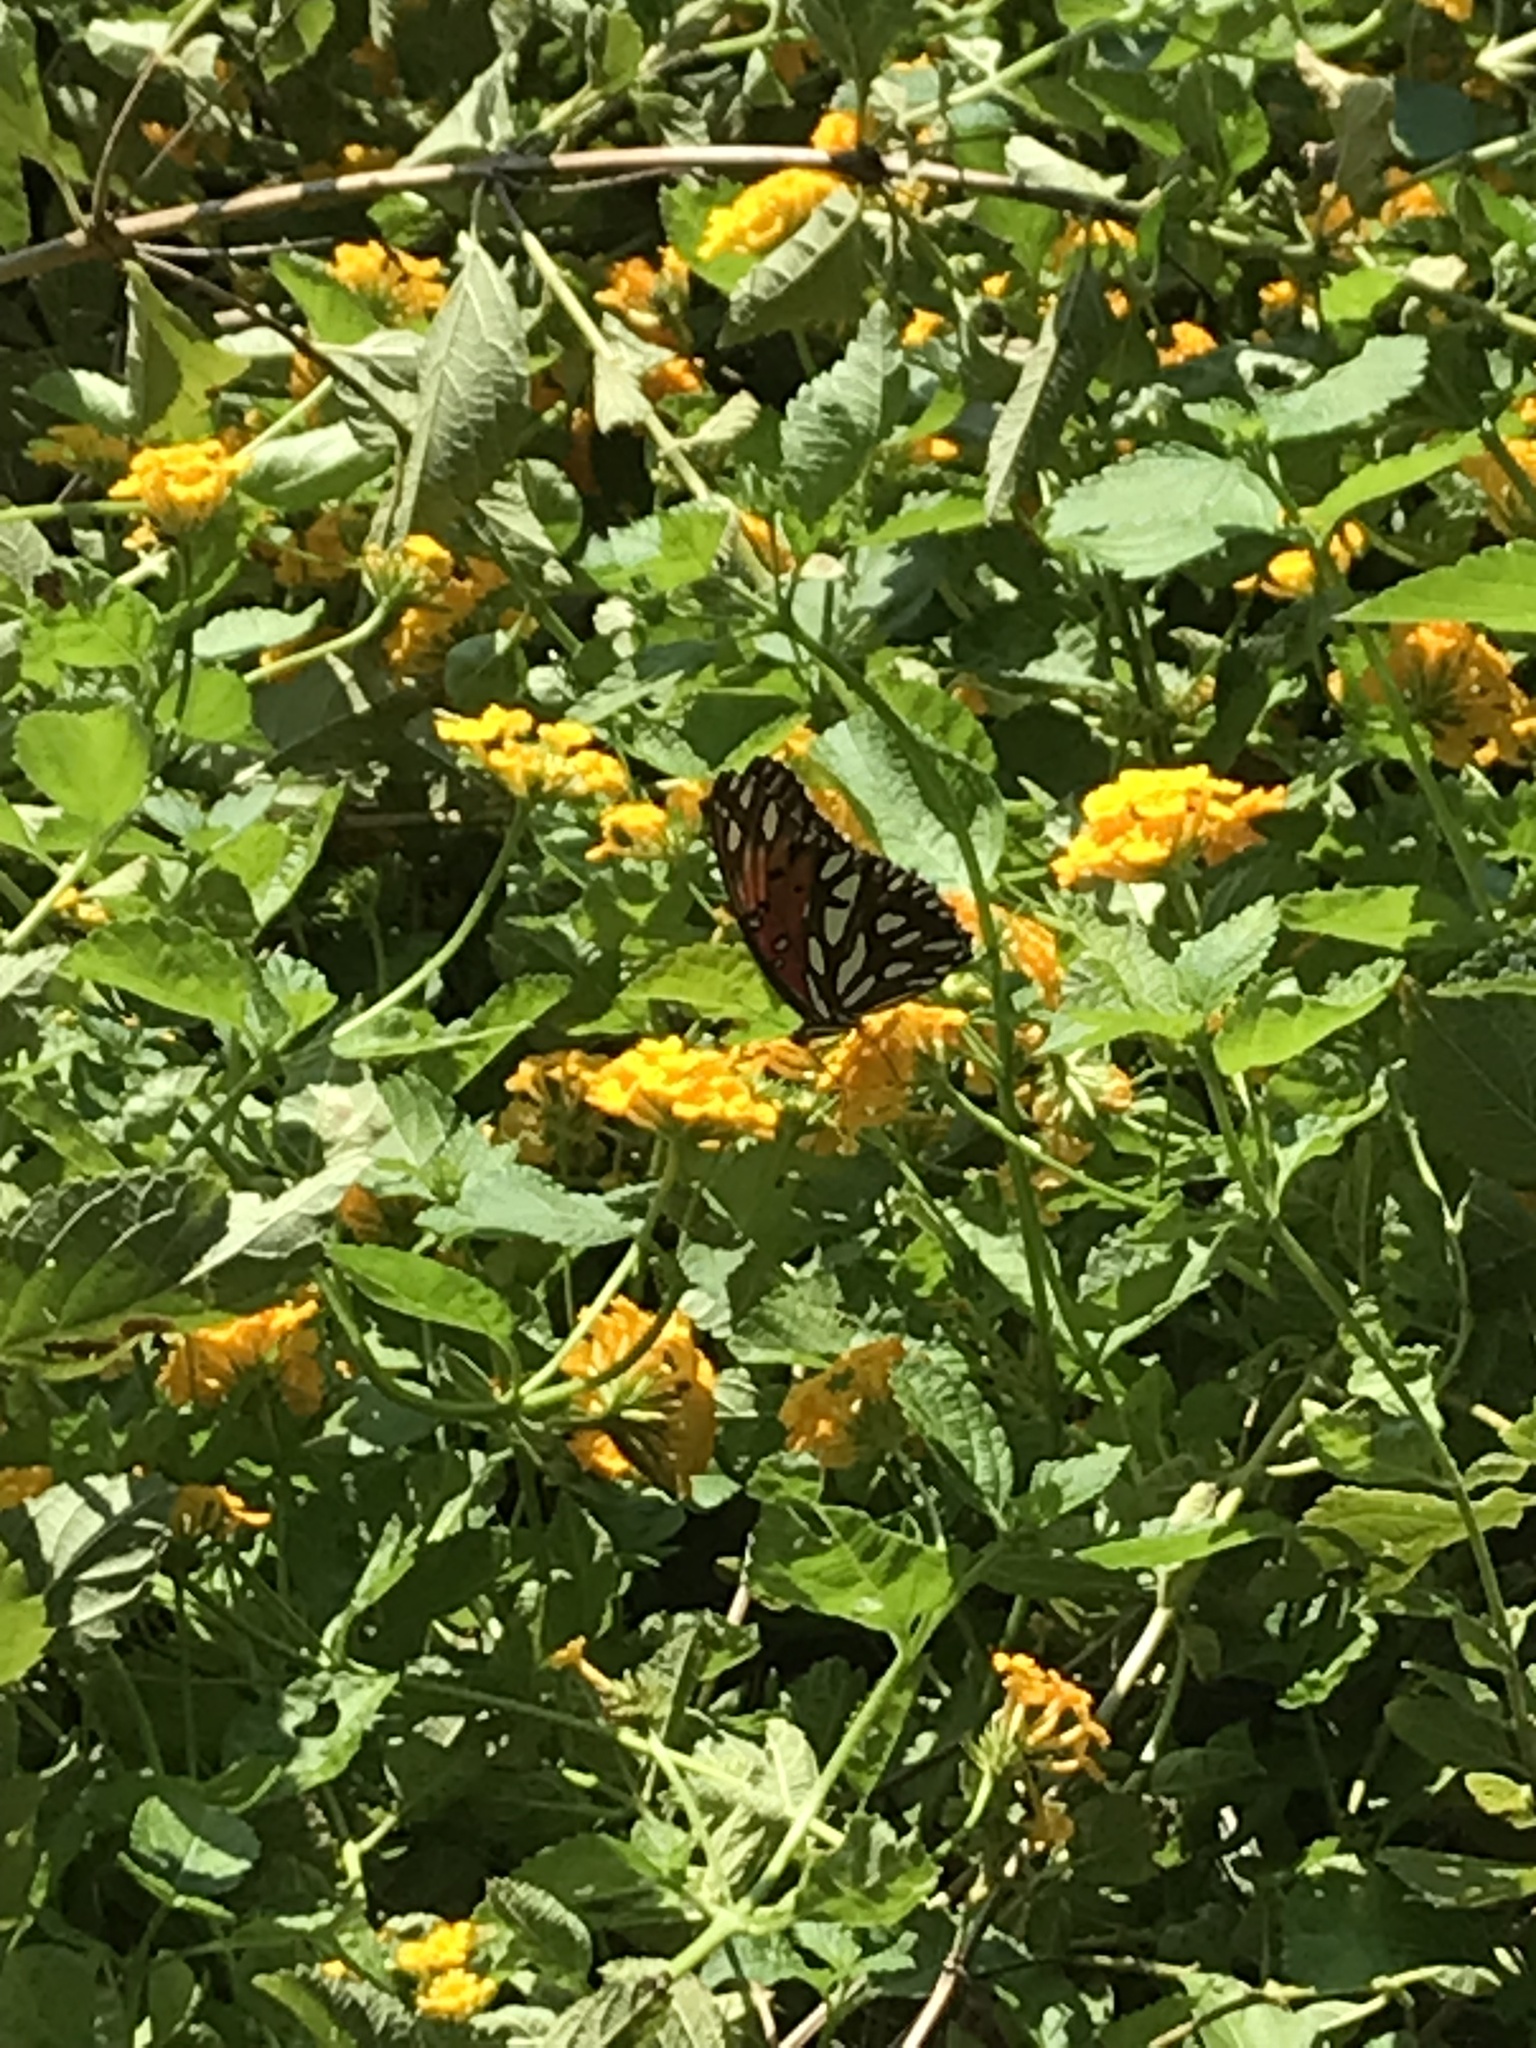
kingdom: Animalia
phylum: Arthropoda
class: Insecta
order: Lepidoptera
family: Nymphalidae
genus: Dione
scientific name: Dione vanillae
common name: Gulf fritillary
